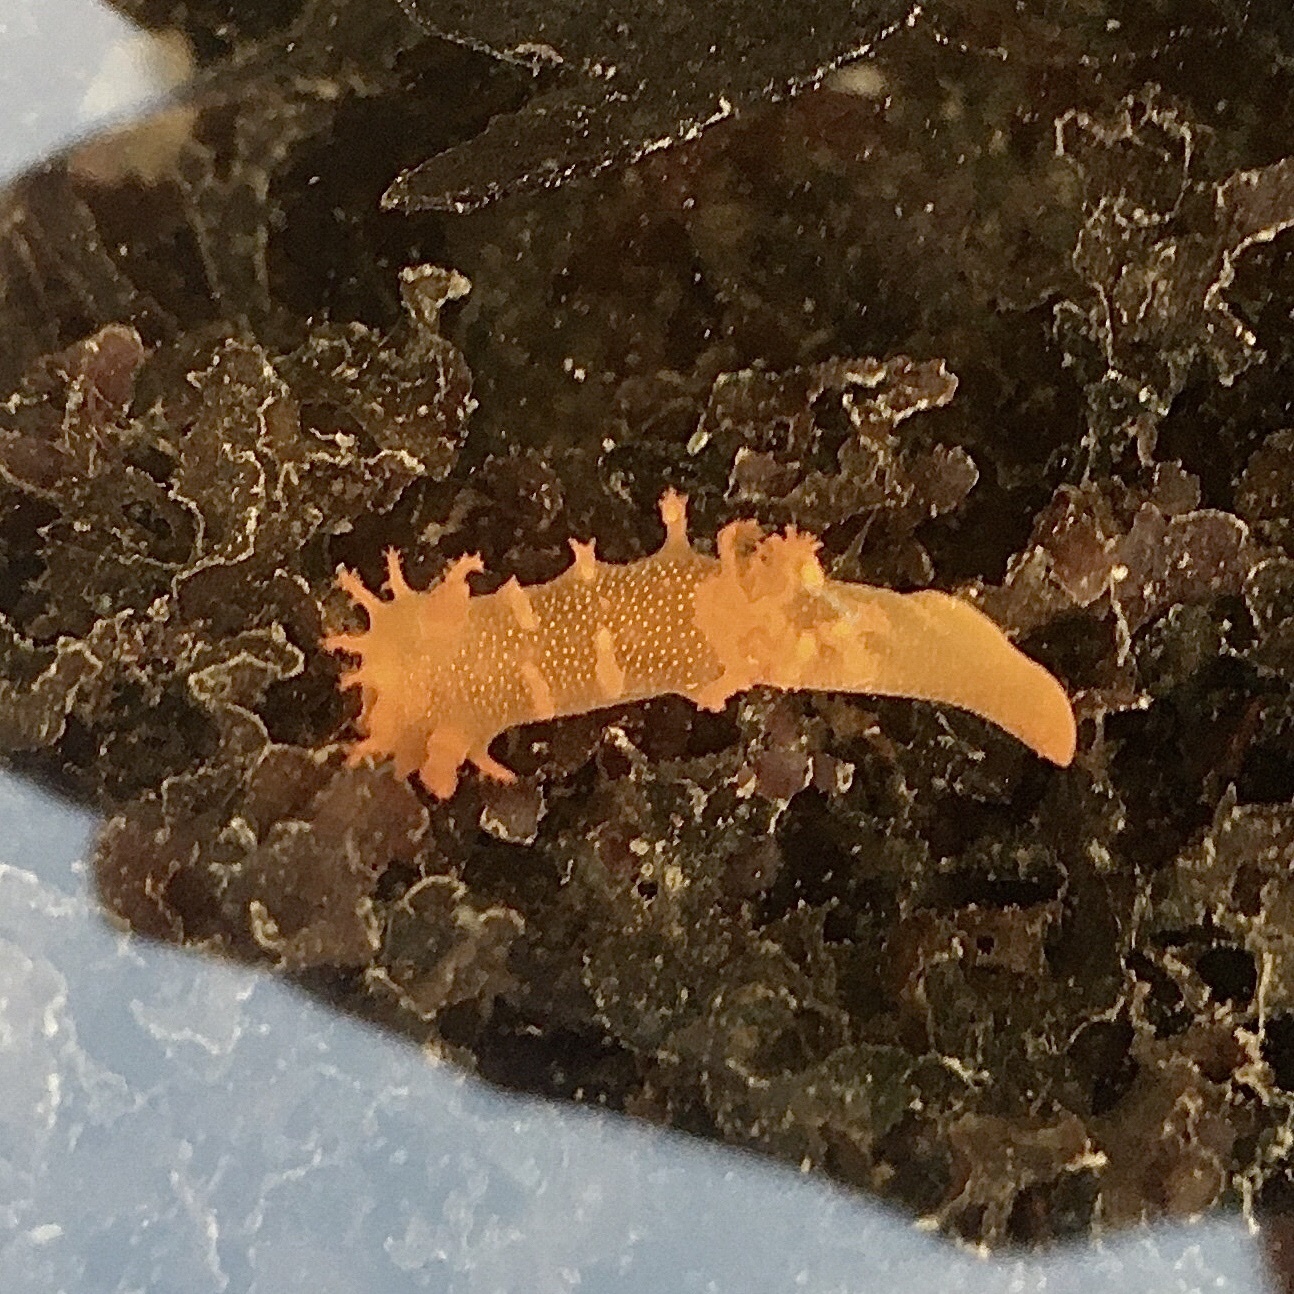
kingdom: Animalia
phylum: Mollusca
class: Gastropoda
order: Nudibranchia
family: Polyceridae
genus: Triopha
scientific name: Triopha maculata
